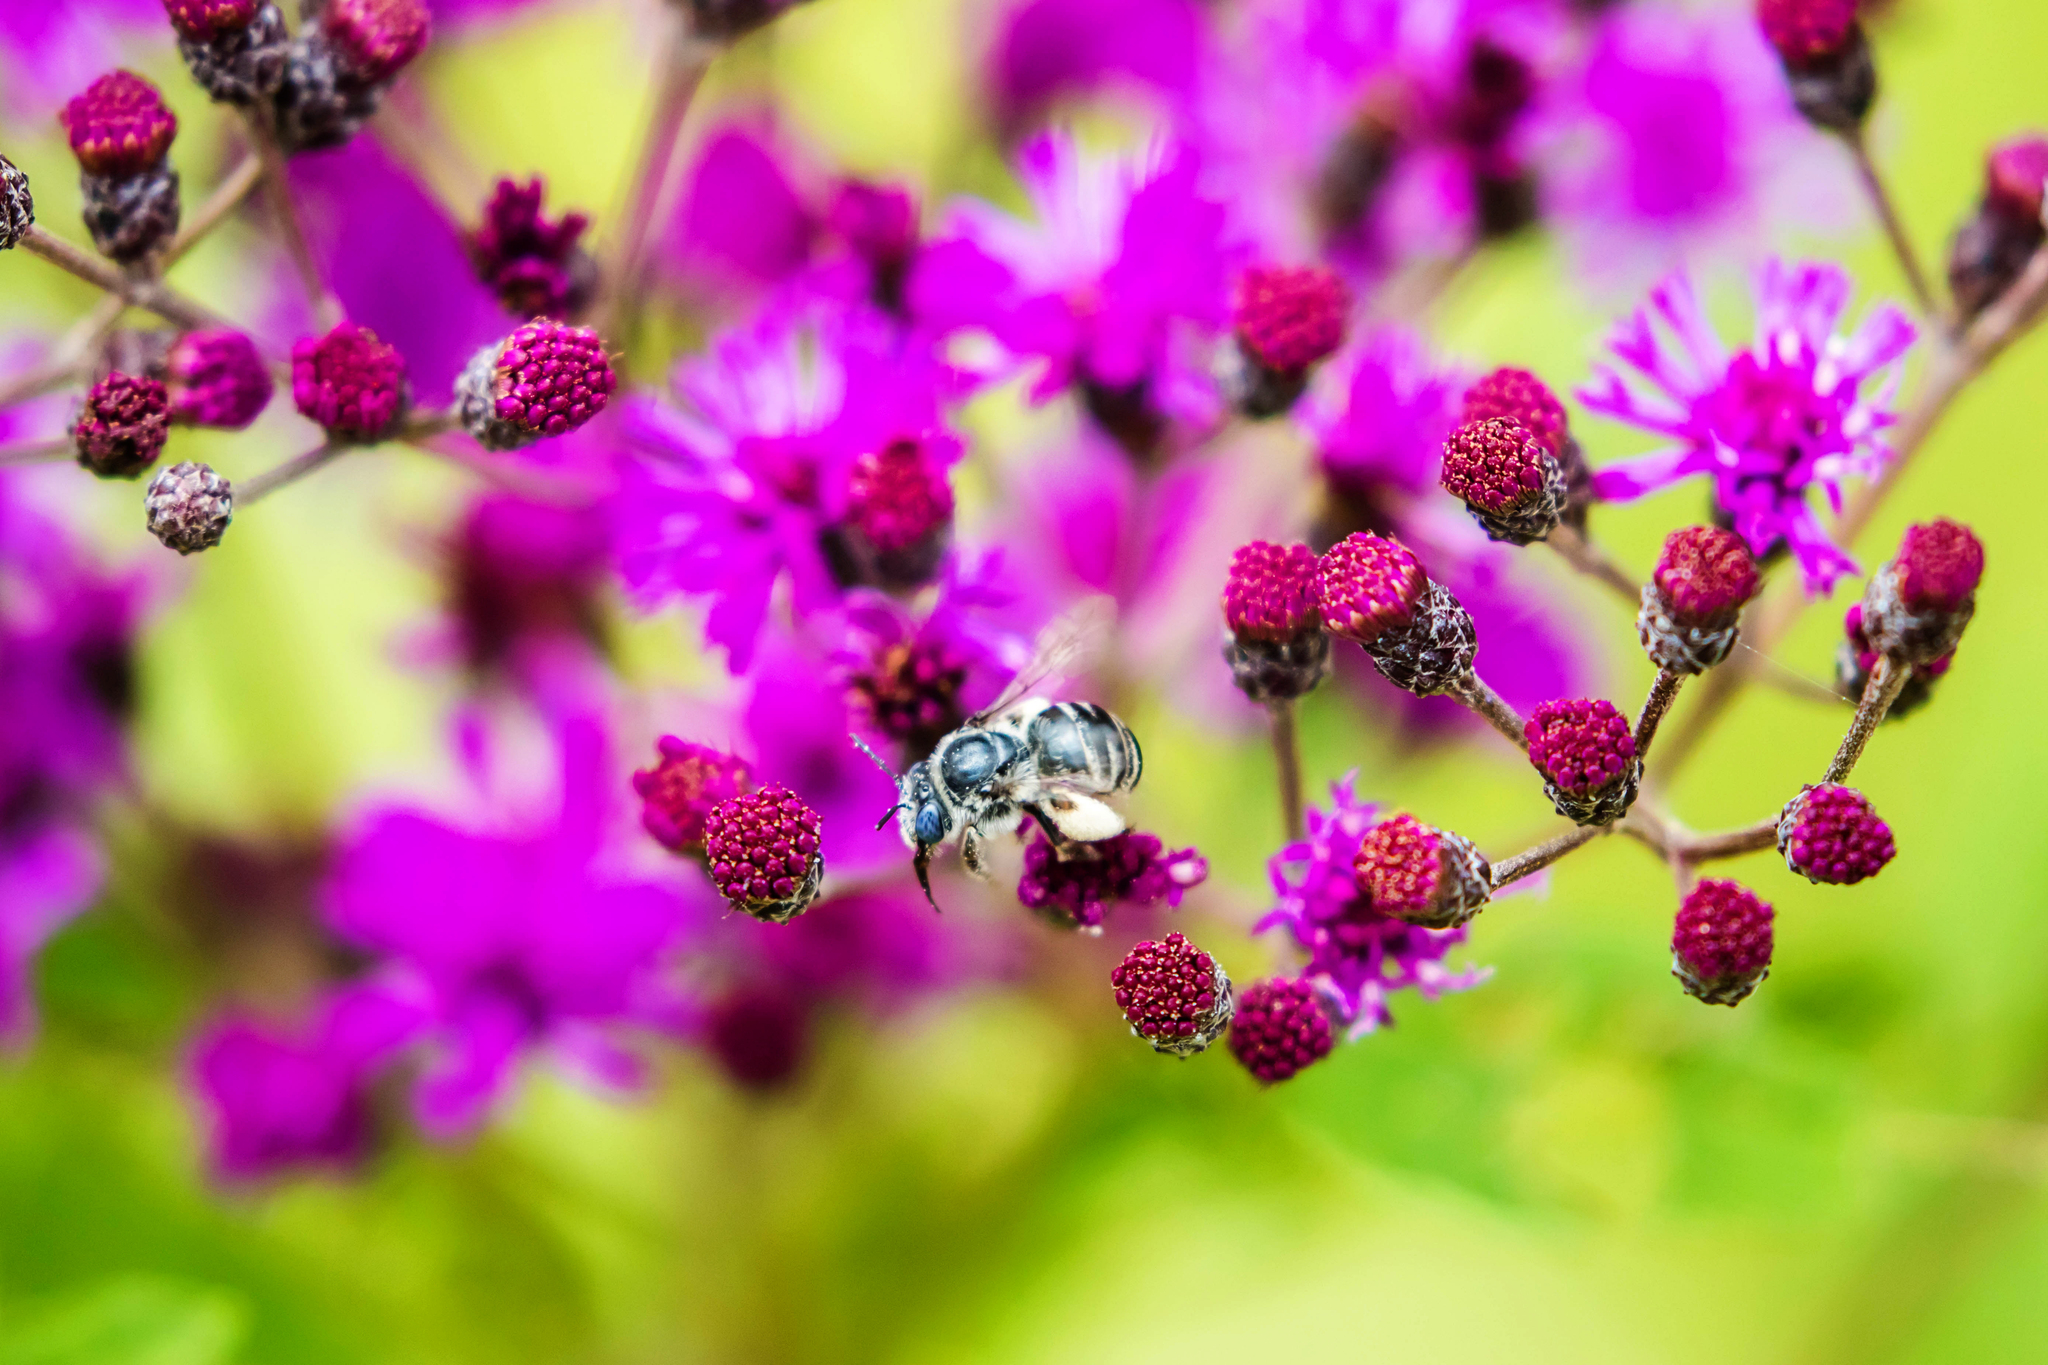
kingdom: Animalia
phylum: Arthropoda
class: Insecta
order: Hymenoptera
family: Apidae
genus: Melissodes
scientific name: Melissodes denticulatus
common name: Denticulate long-horned bee
